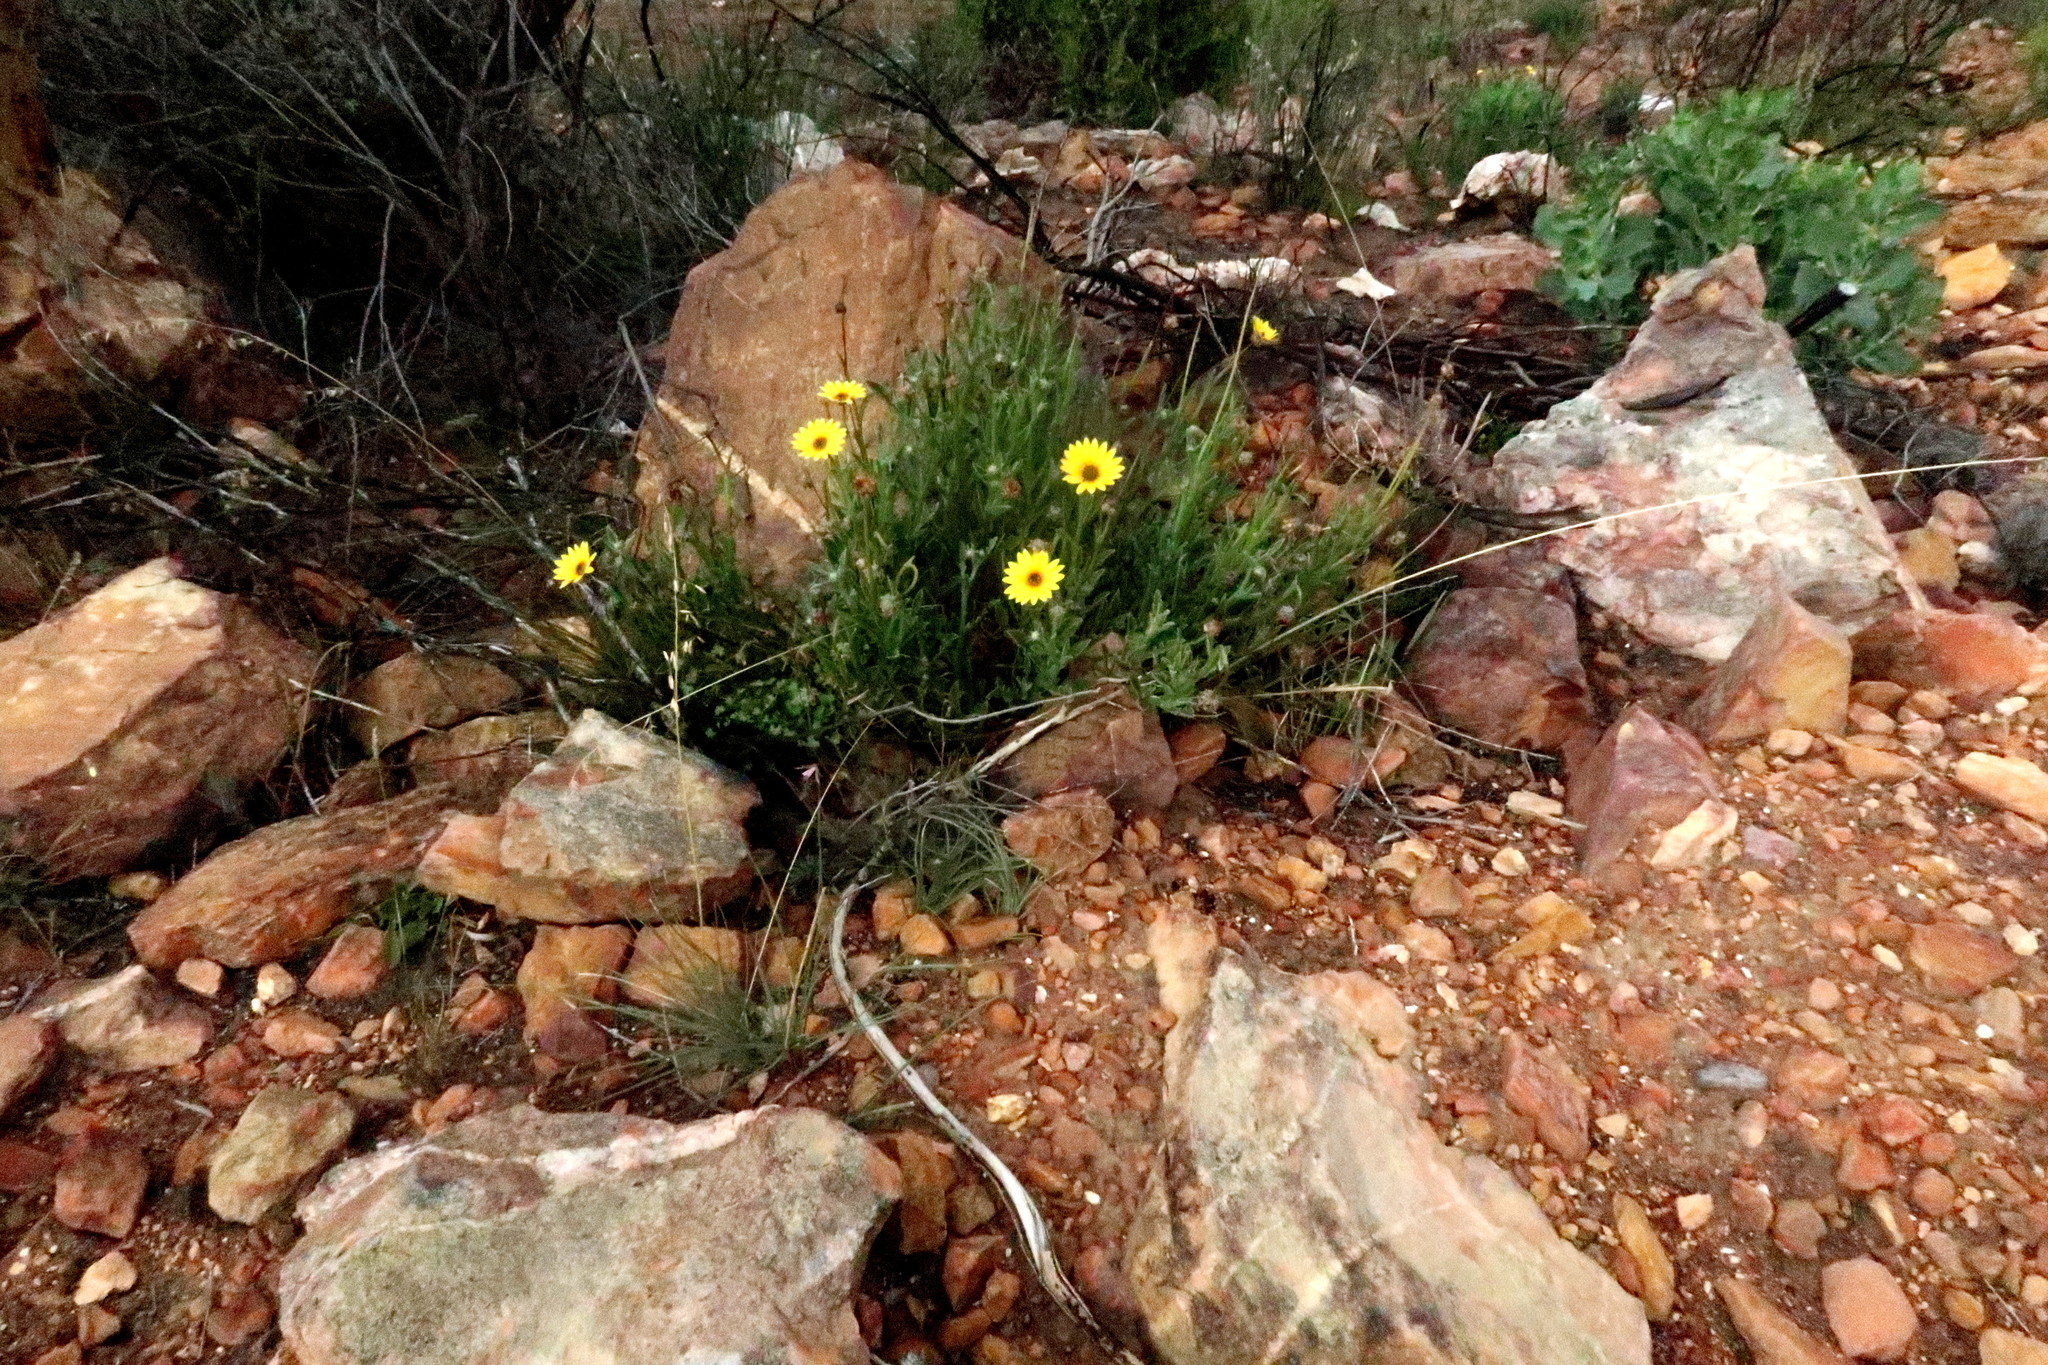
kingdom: Plantae
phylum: Tracheophyta
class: Magnoliopsida
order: Asterales
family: Asteraceae
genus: Arctotis
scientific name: Arctotis lanceolata
